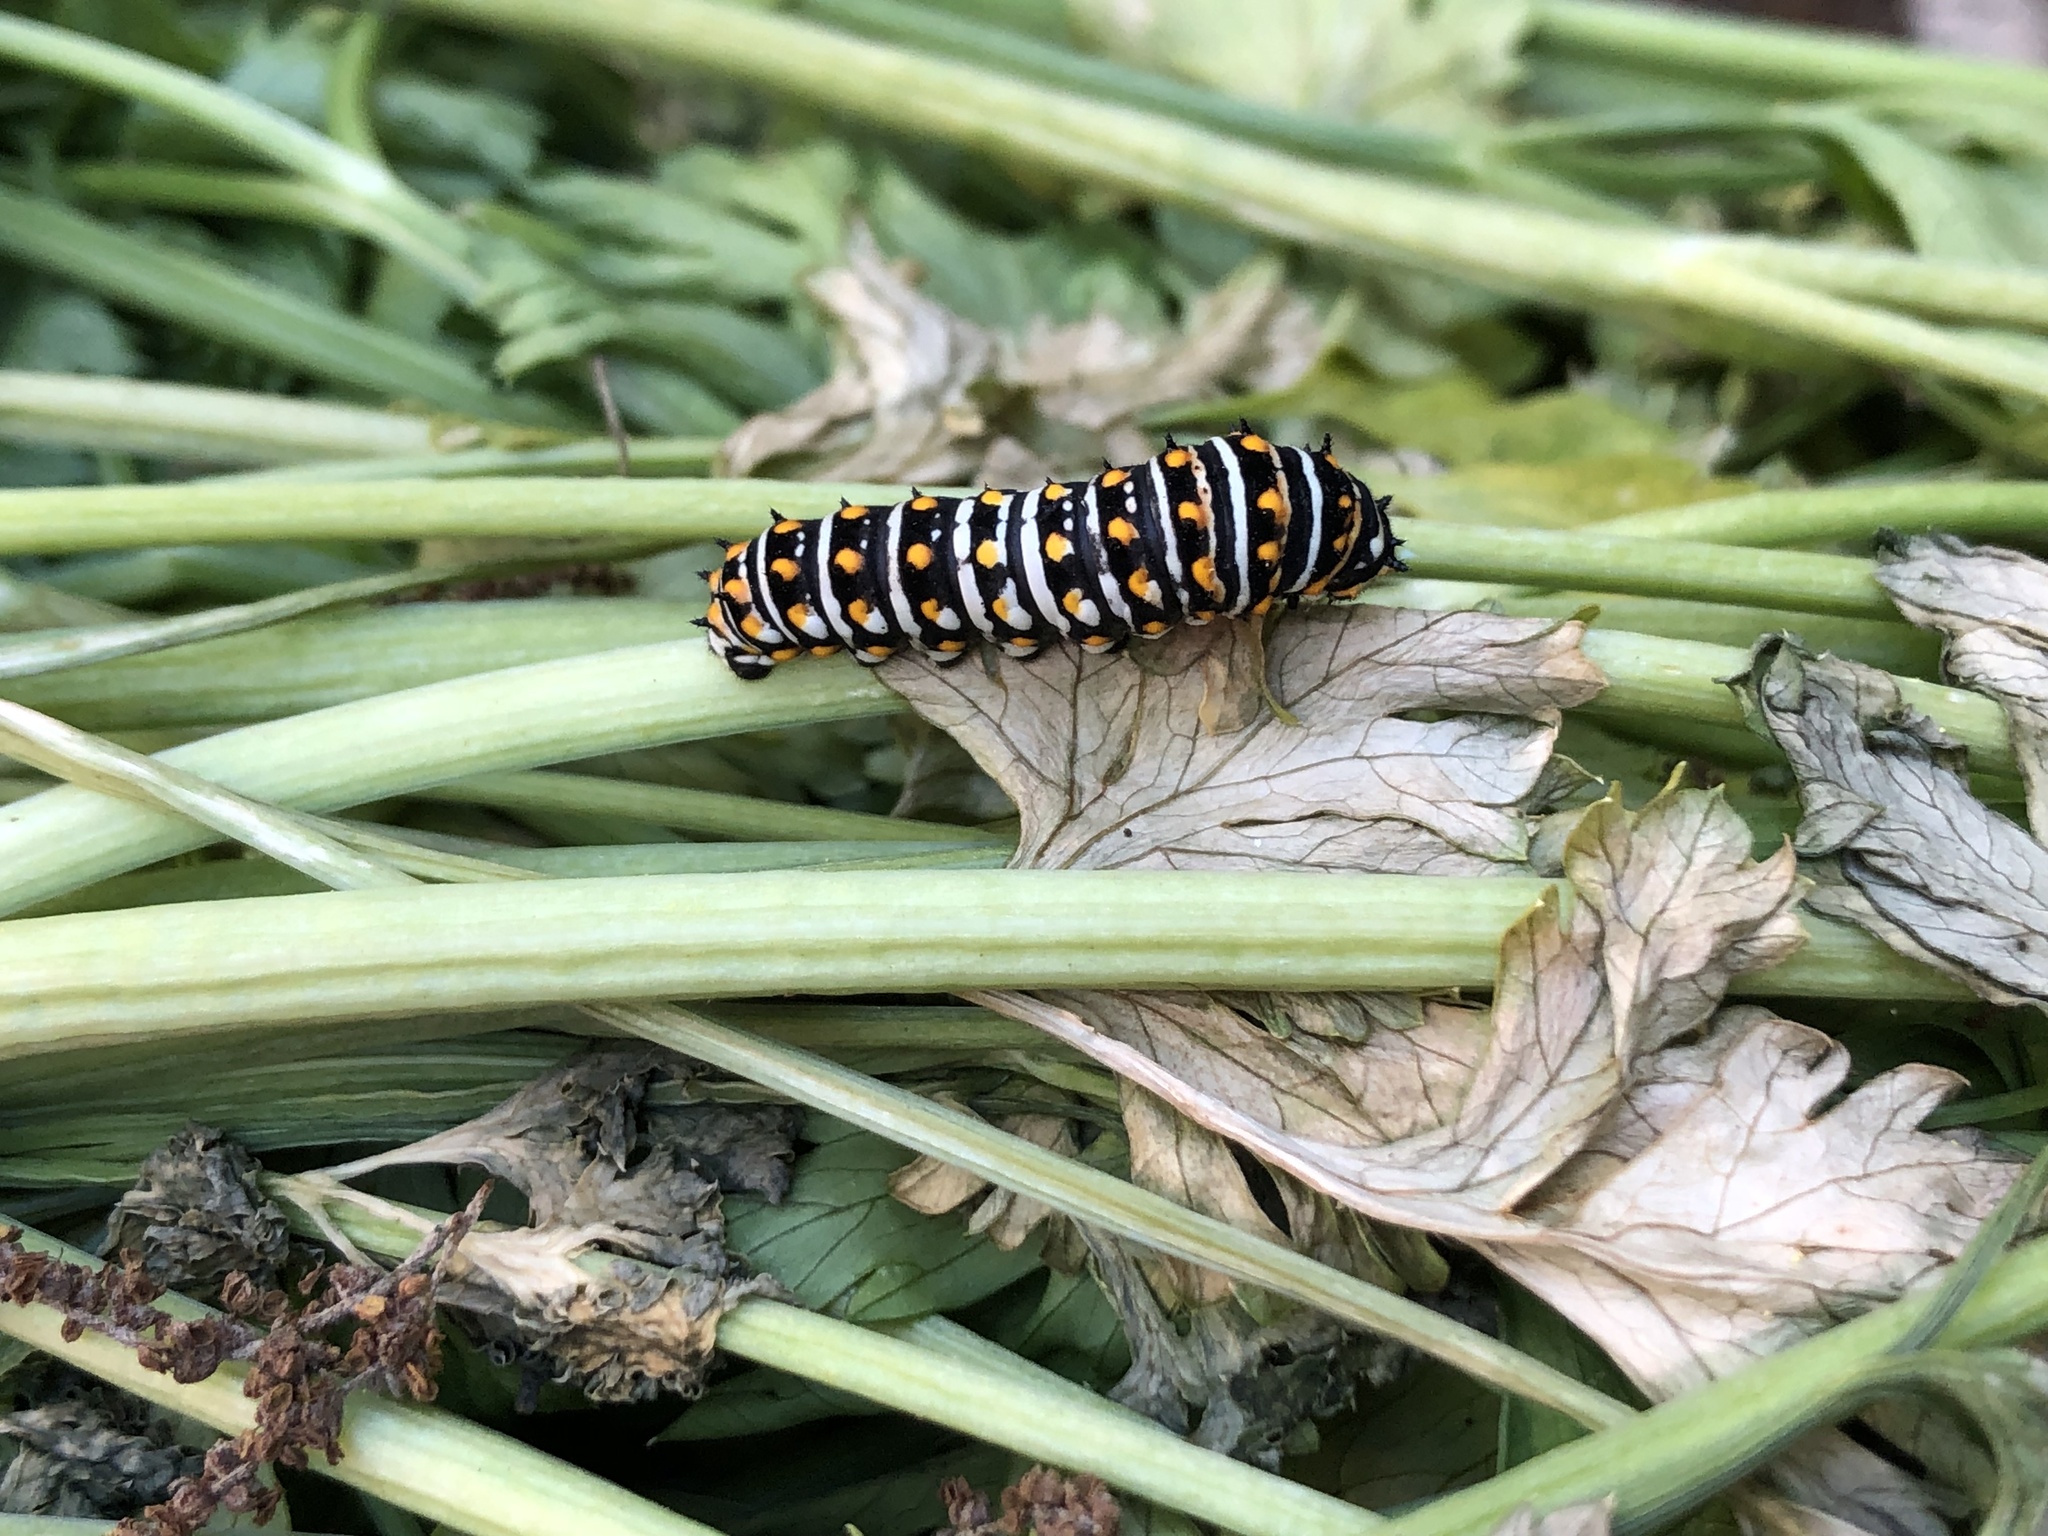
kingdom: Animalia
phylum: Arthropoda
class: Insecta
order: Lepidoptera
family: Papilionidae
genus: Papilio
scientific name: Papilio polyxenes
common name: Black swallowtail
